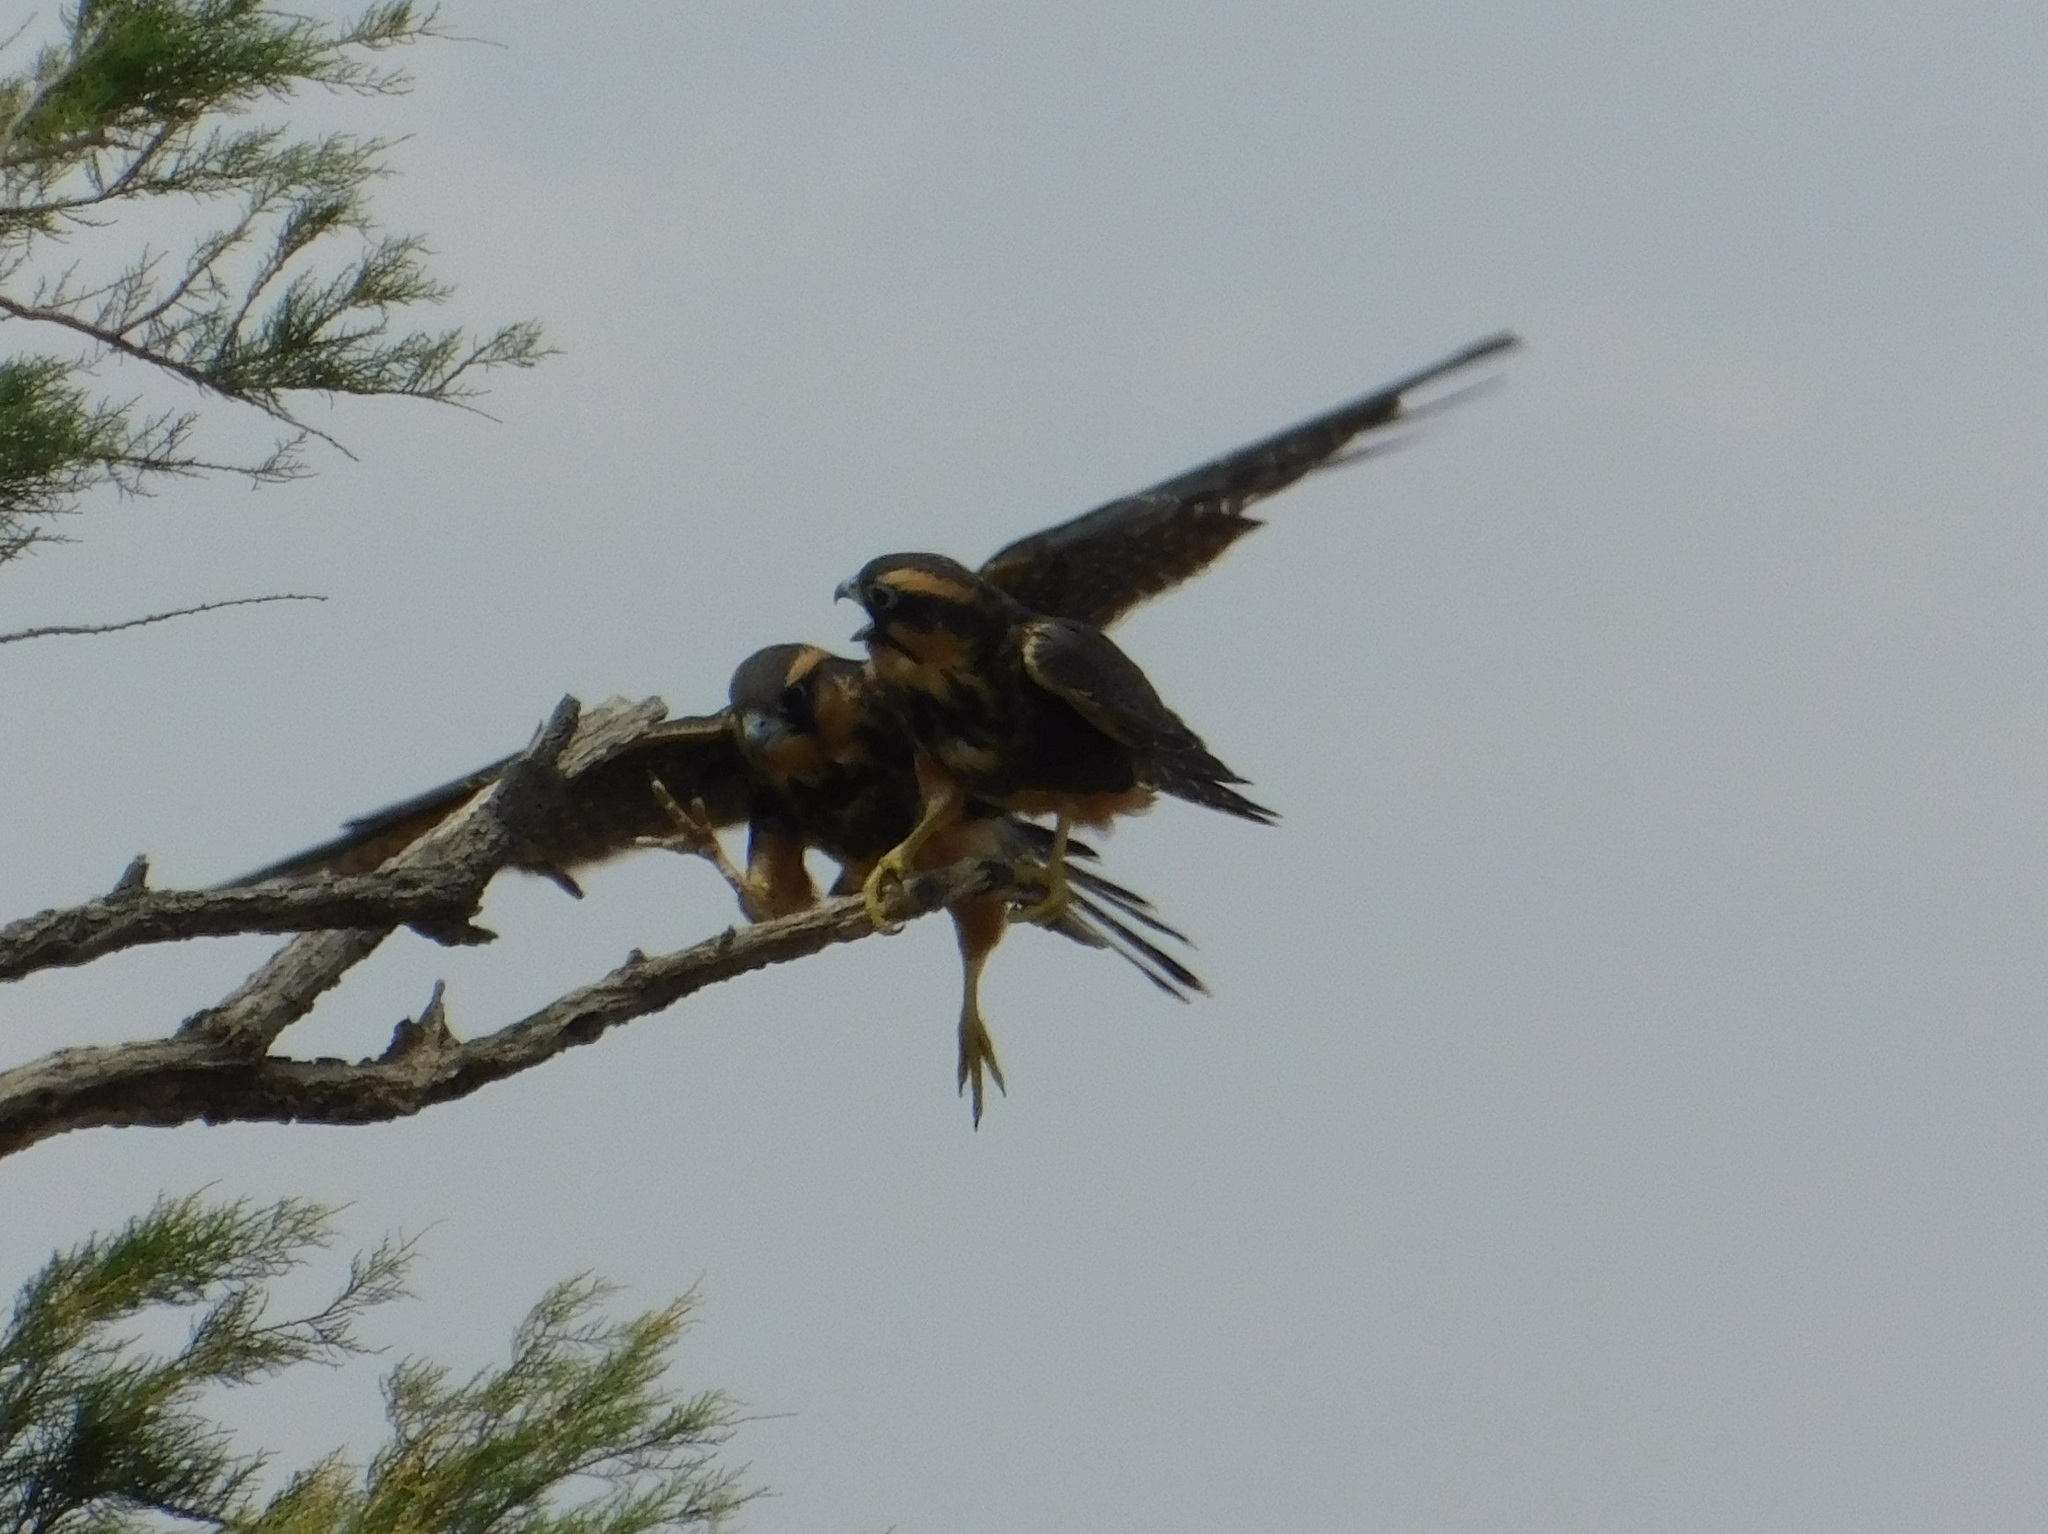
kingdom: Animalia
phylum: Chordata
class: Aves
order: Falconiformes
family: Falconidae
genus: Falco
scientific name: Falco femoralis
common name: Aplomado falcon
